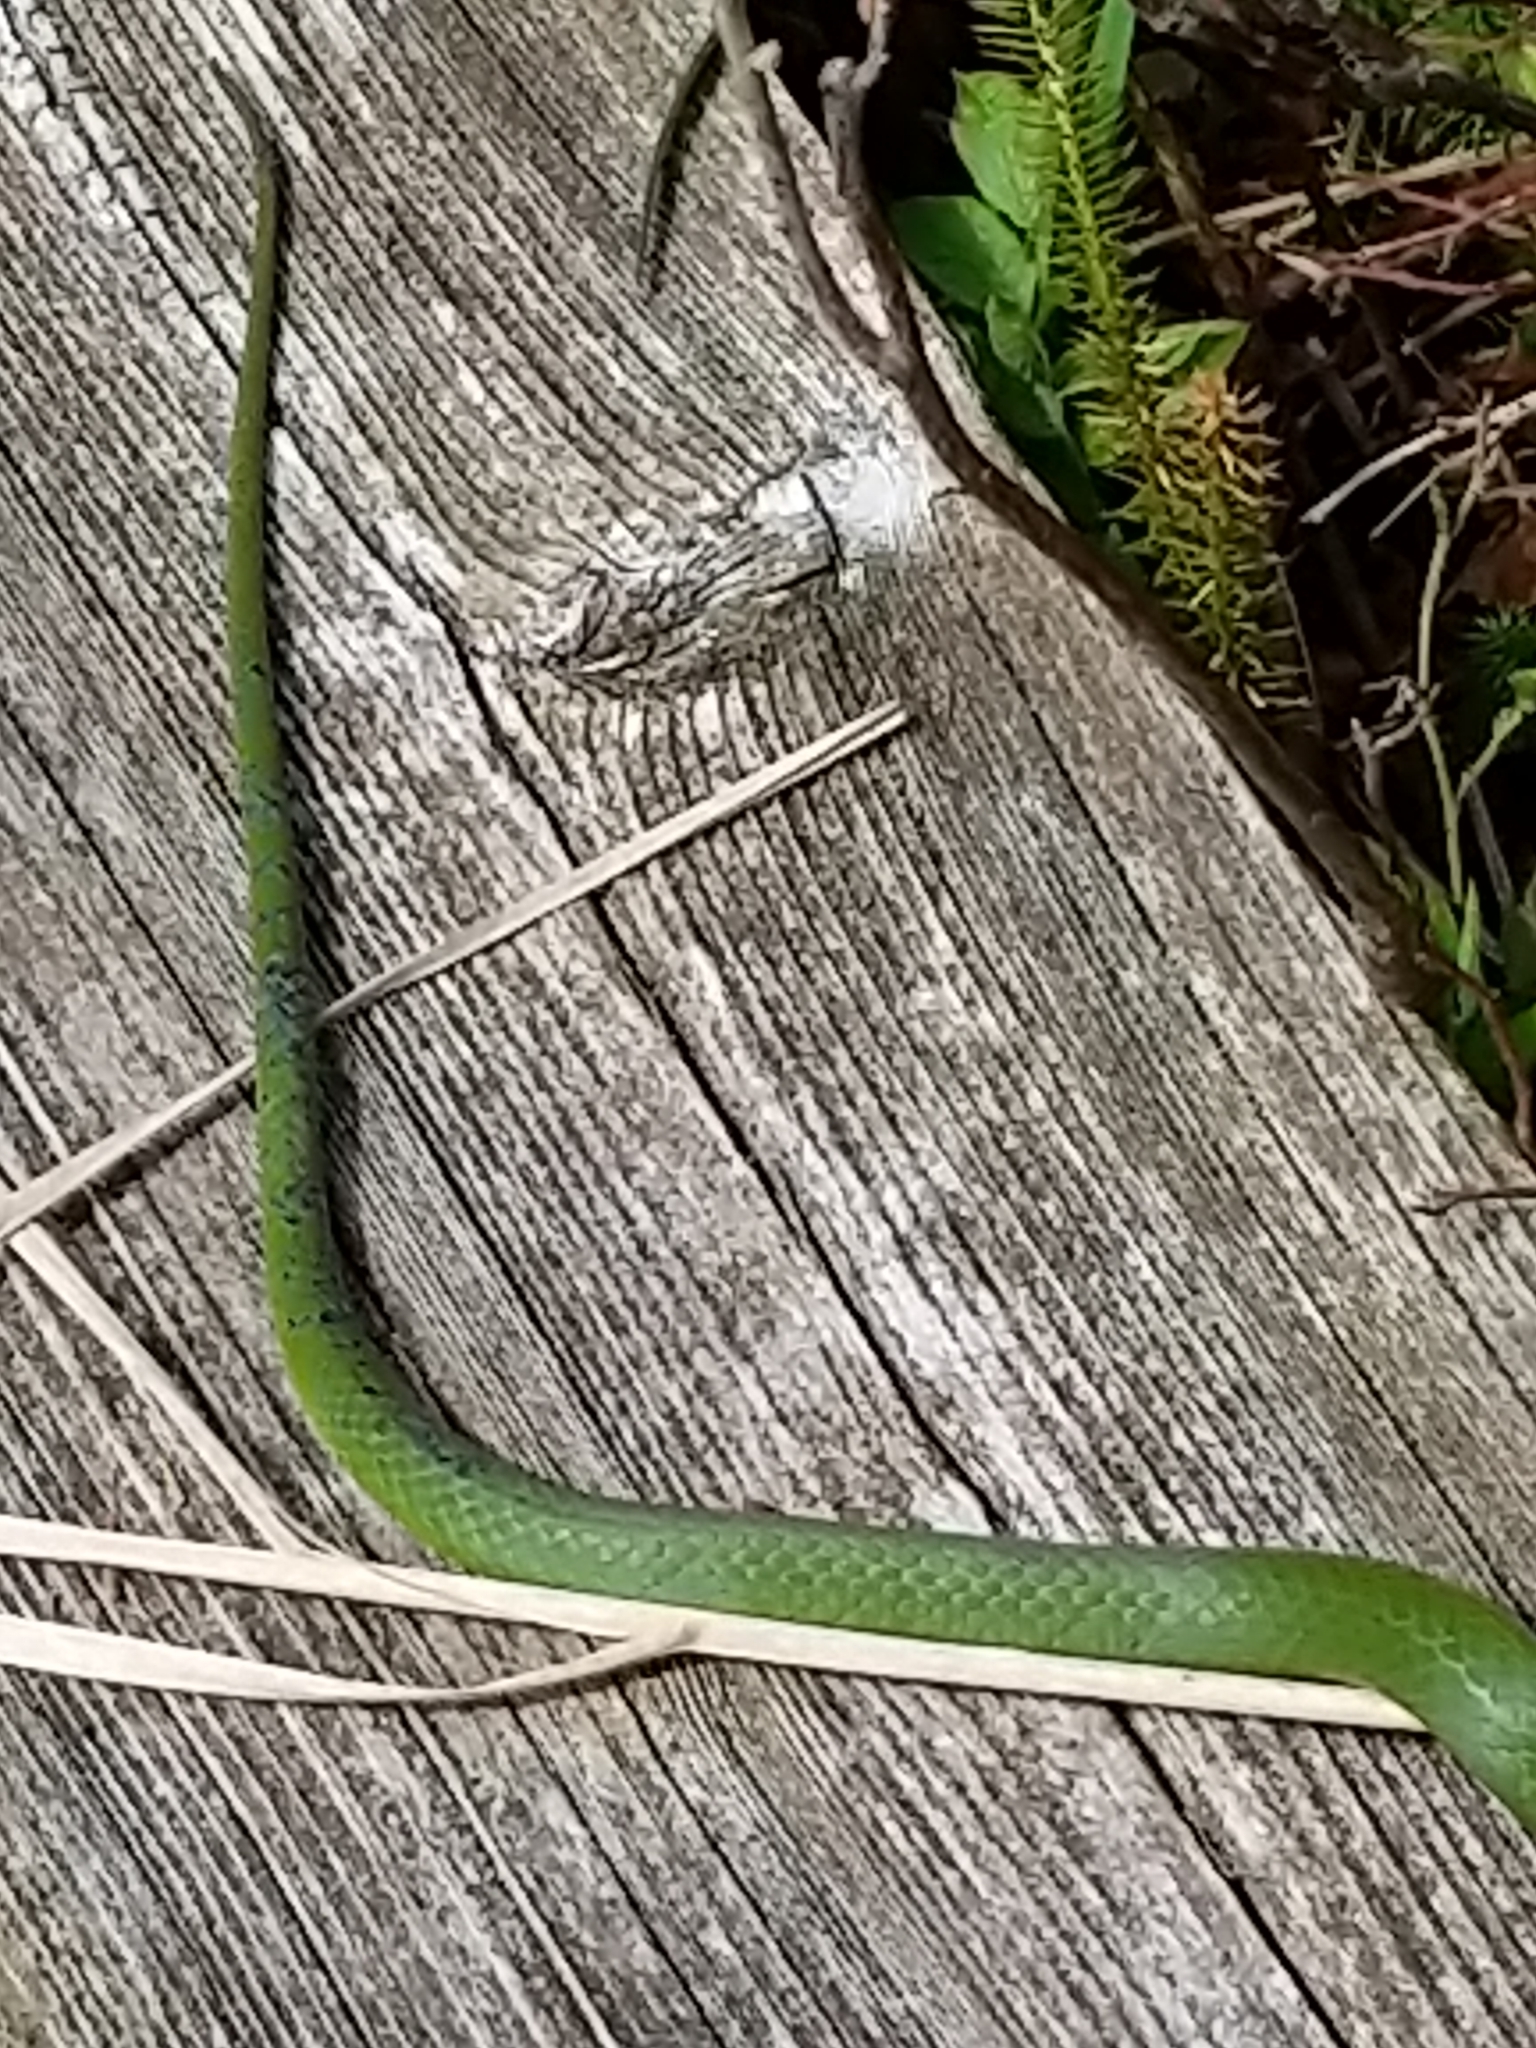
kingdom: Animalia
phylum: Chordata
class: Squamata
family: Colubridae
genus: Opheodrys
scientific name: Opheodrys vernalis
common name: Smooth green snake
